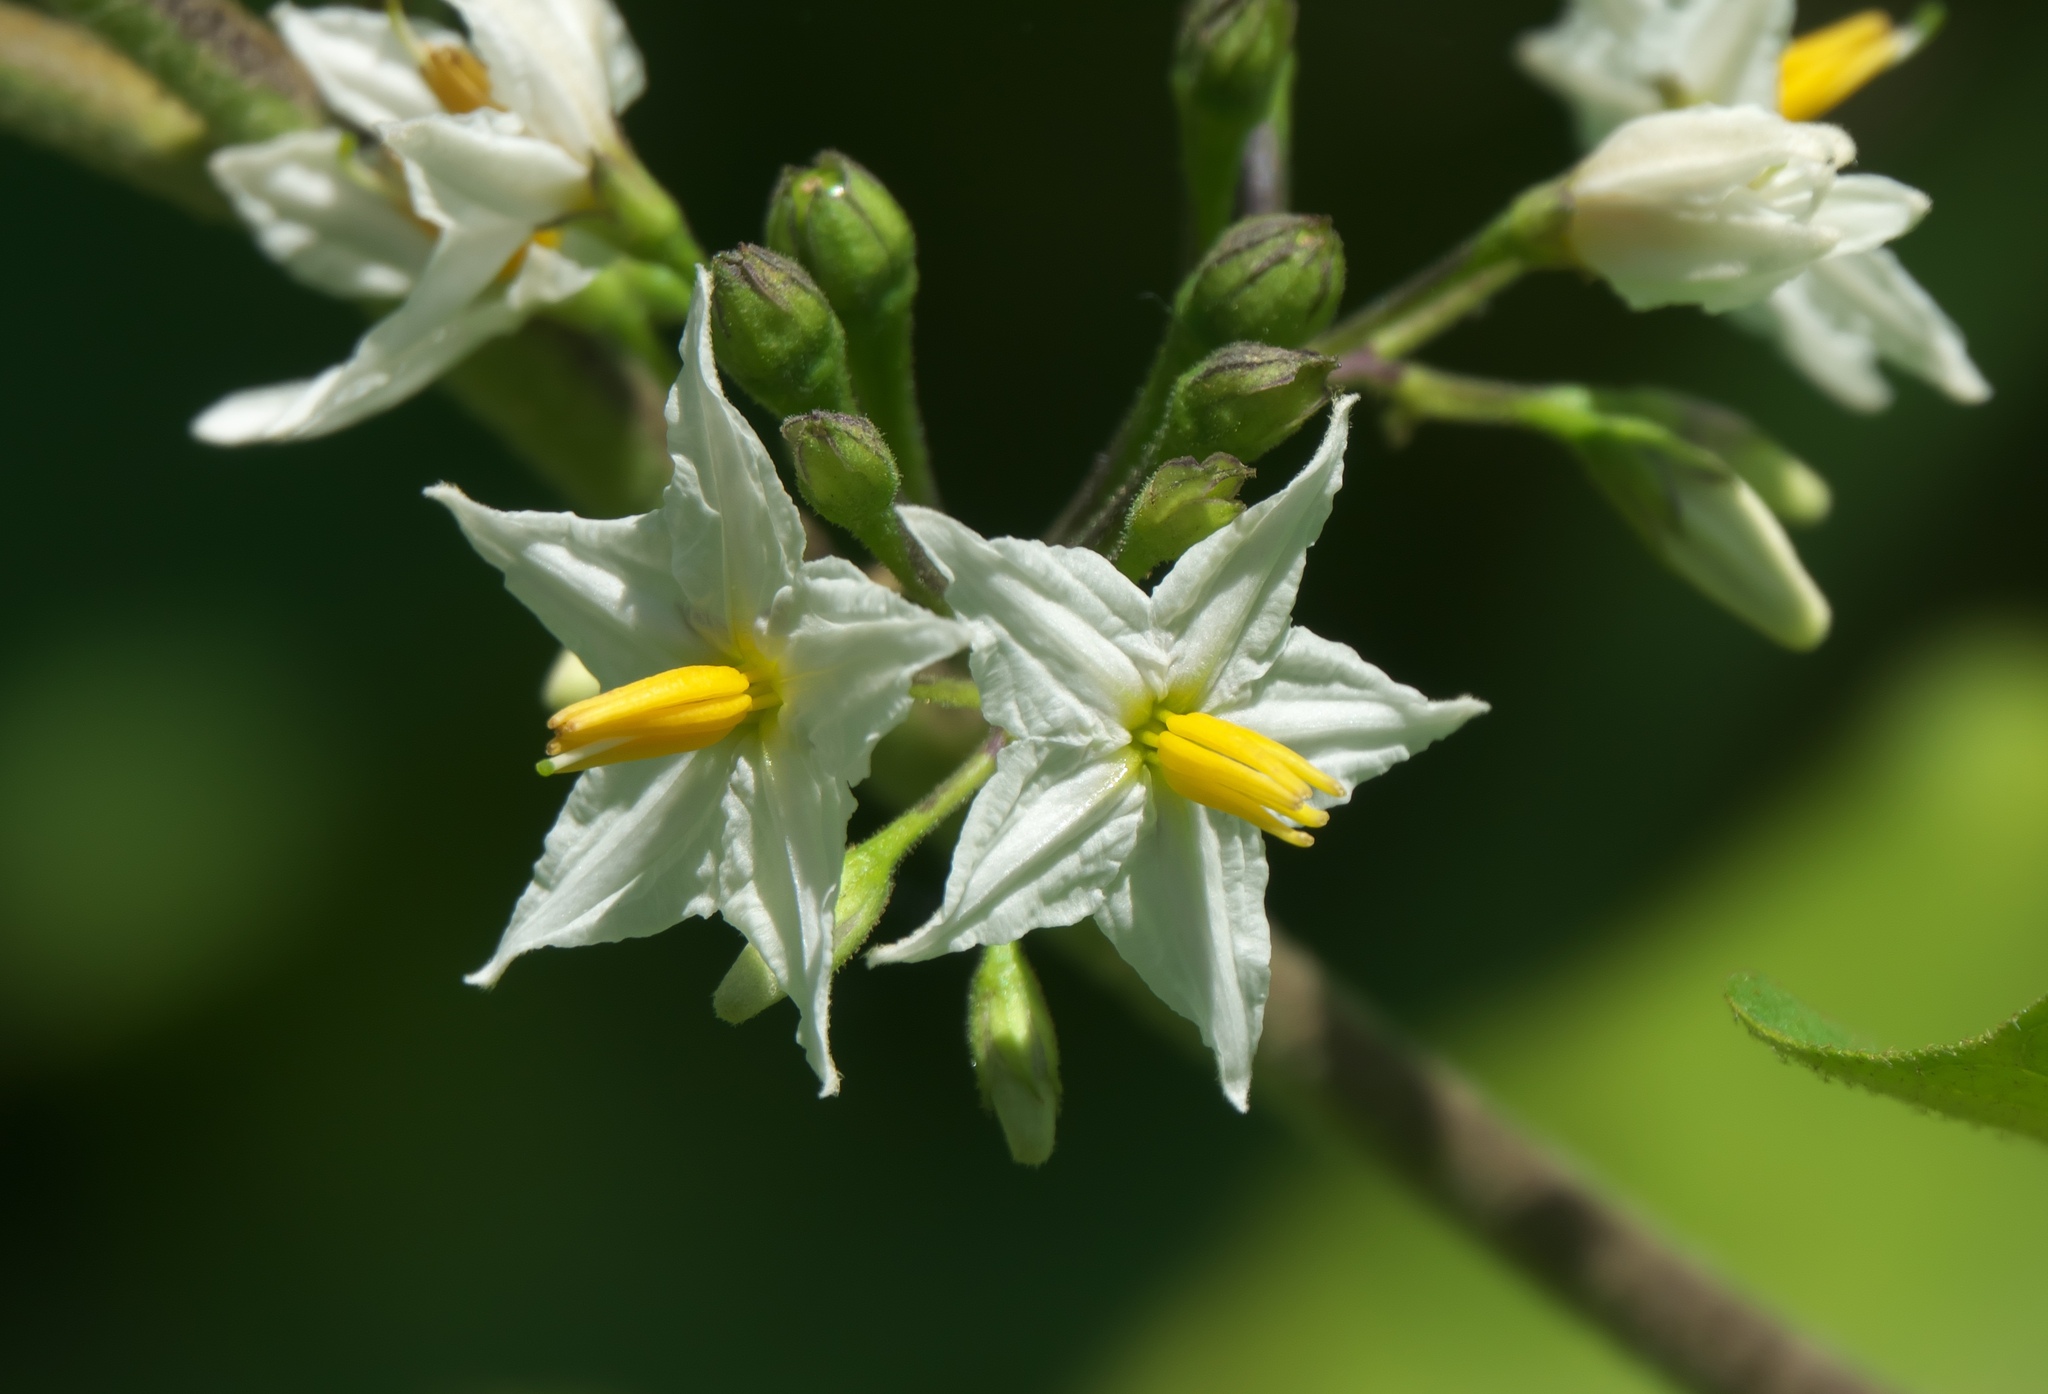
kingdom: Plantae
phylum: Tracheophyta
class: Magnoliopsida
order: Solanales
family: Solanaceae
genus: Solanum
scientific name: Solanum torvum
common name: Turkey berry
